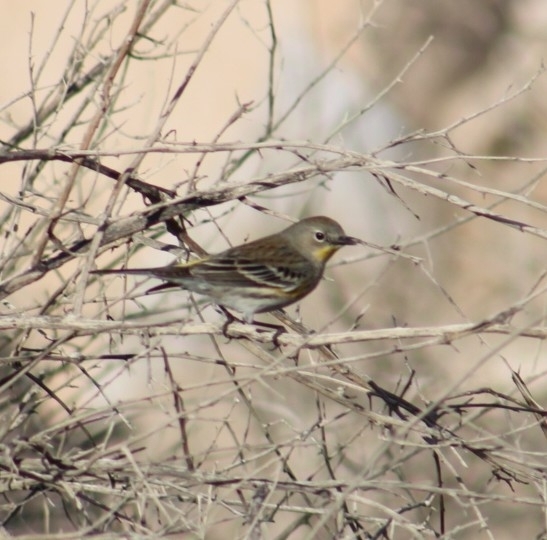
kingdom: Animalia
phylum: Chordata
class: Aves
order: Passeriformes
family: Parulidae
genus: Setophaga
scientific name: Setophaga coronata
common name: Myrtle warbler
